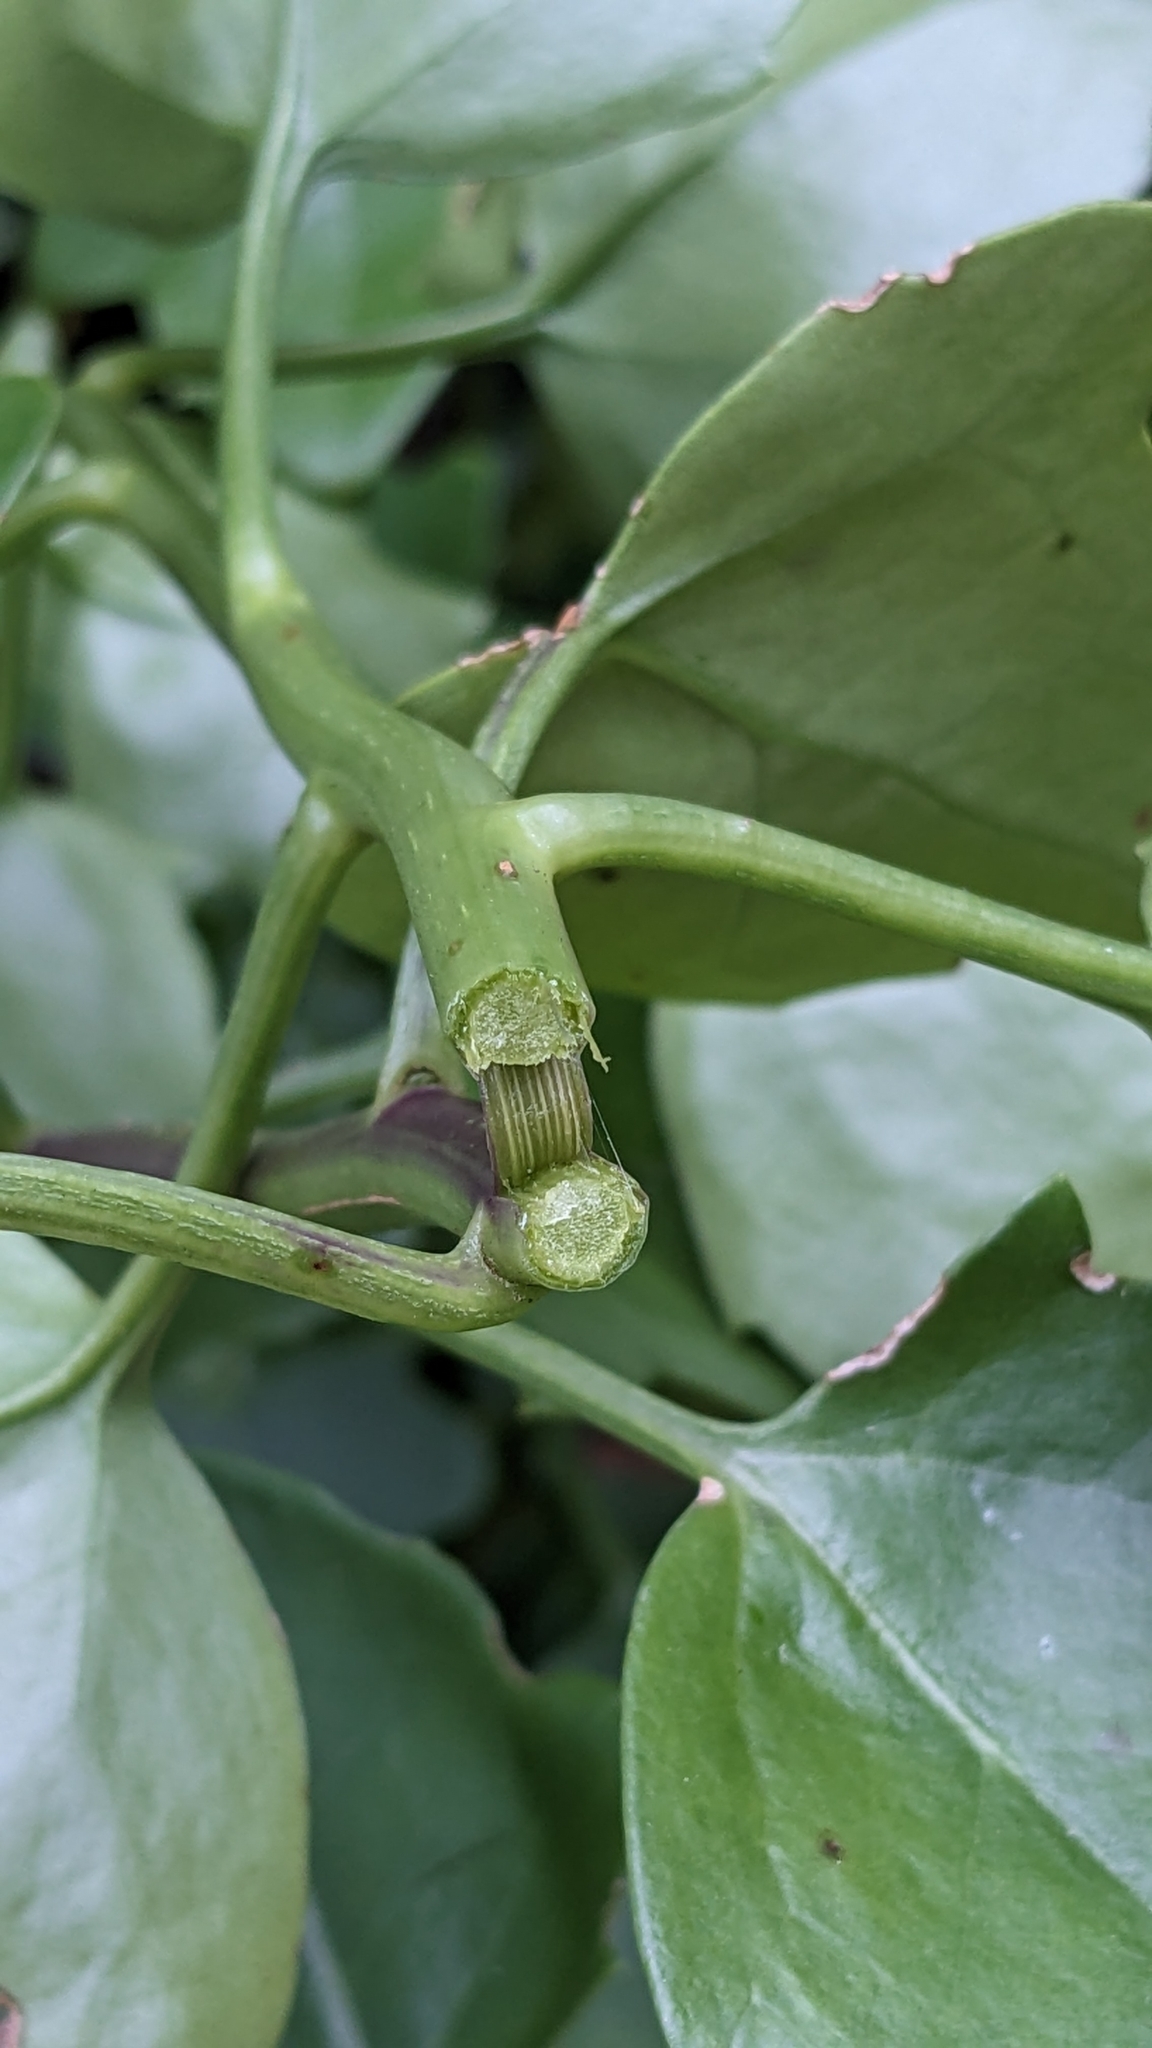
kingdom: Plantae
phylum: Tracheophyta
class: Magnoliopsida
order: Asterales
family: Asteraceae
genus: Senecio
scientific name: Senecio angulatus
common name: Climbing groundsel
